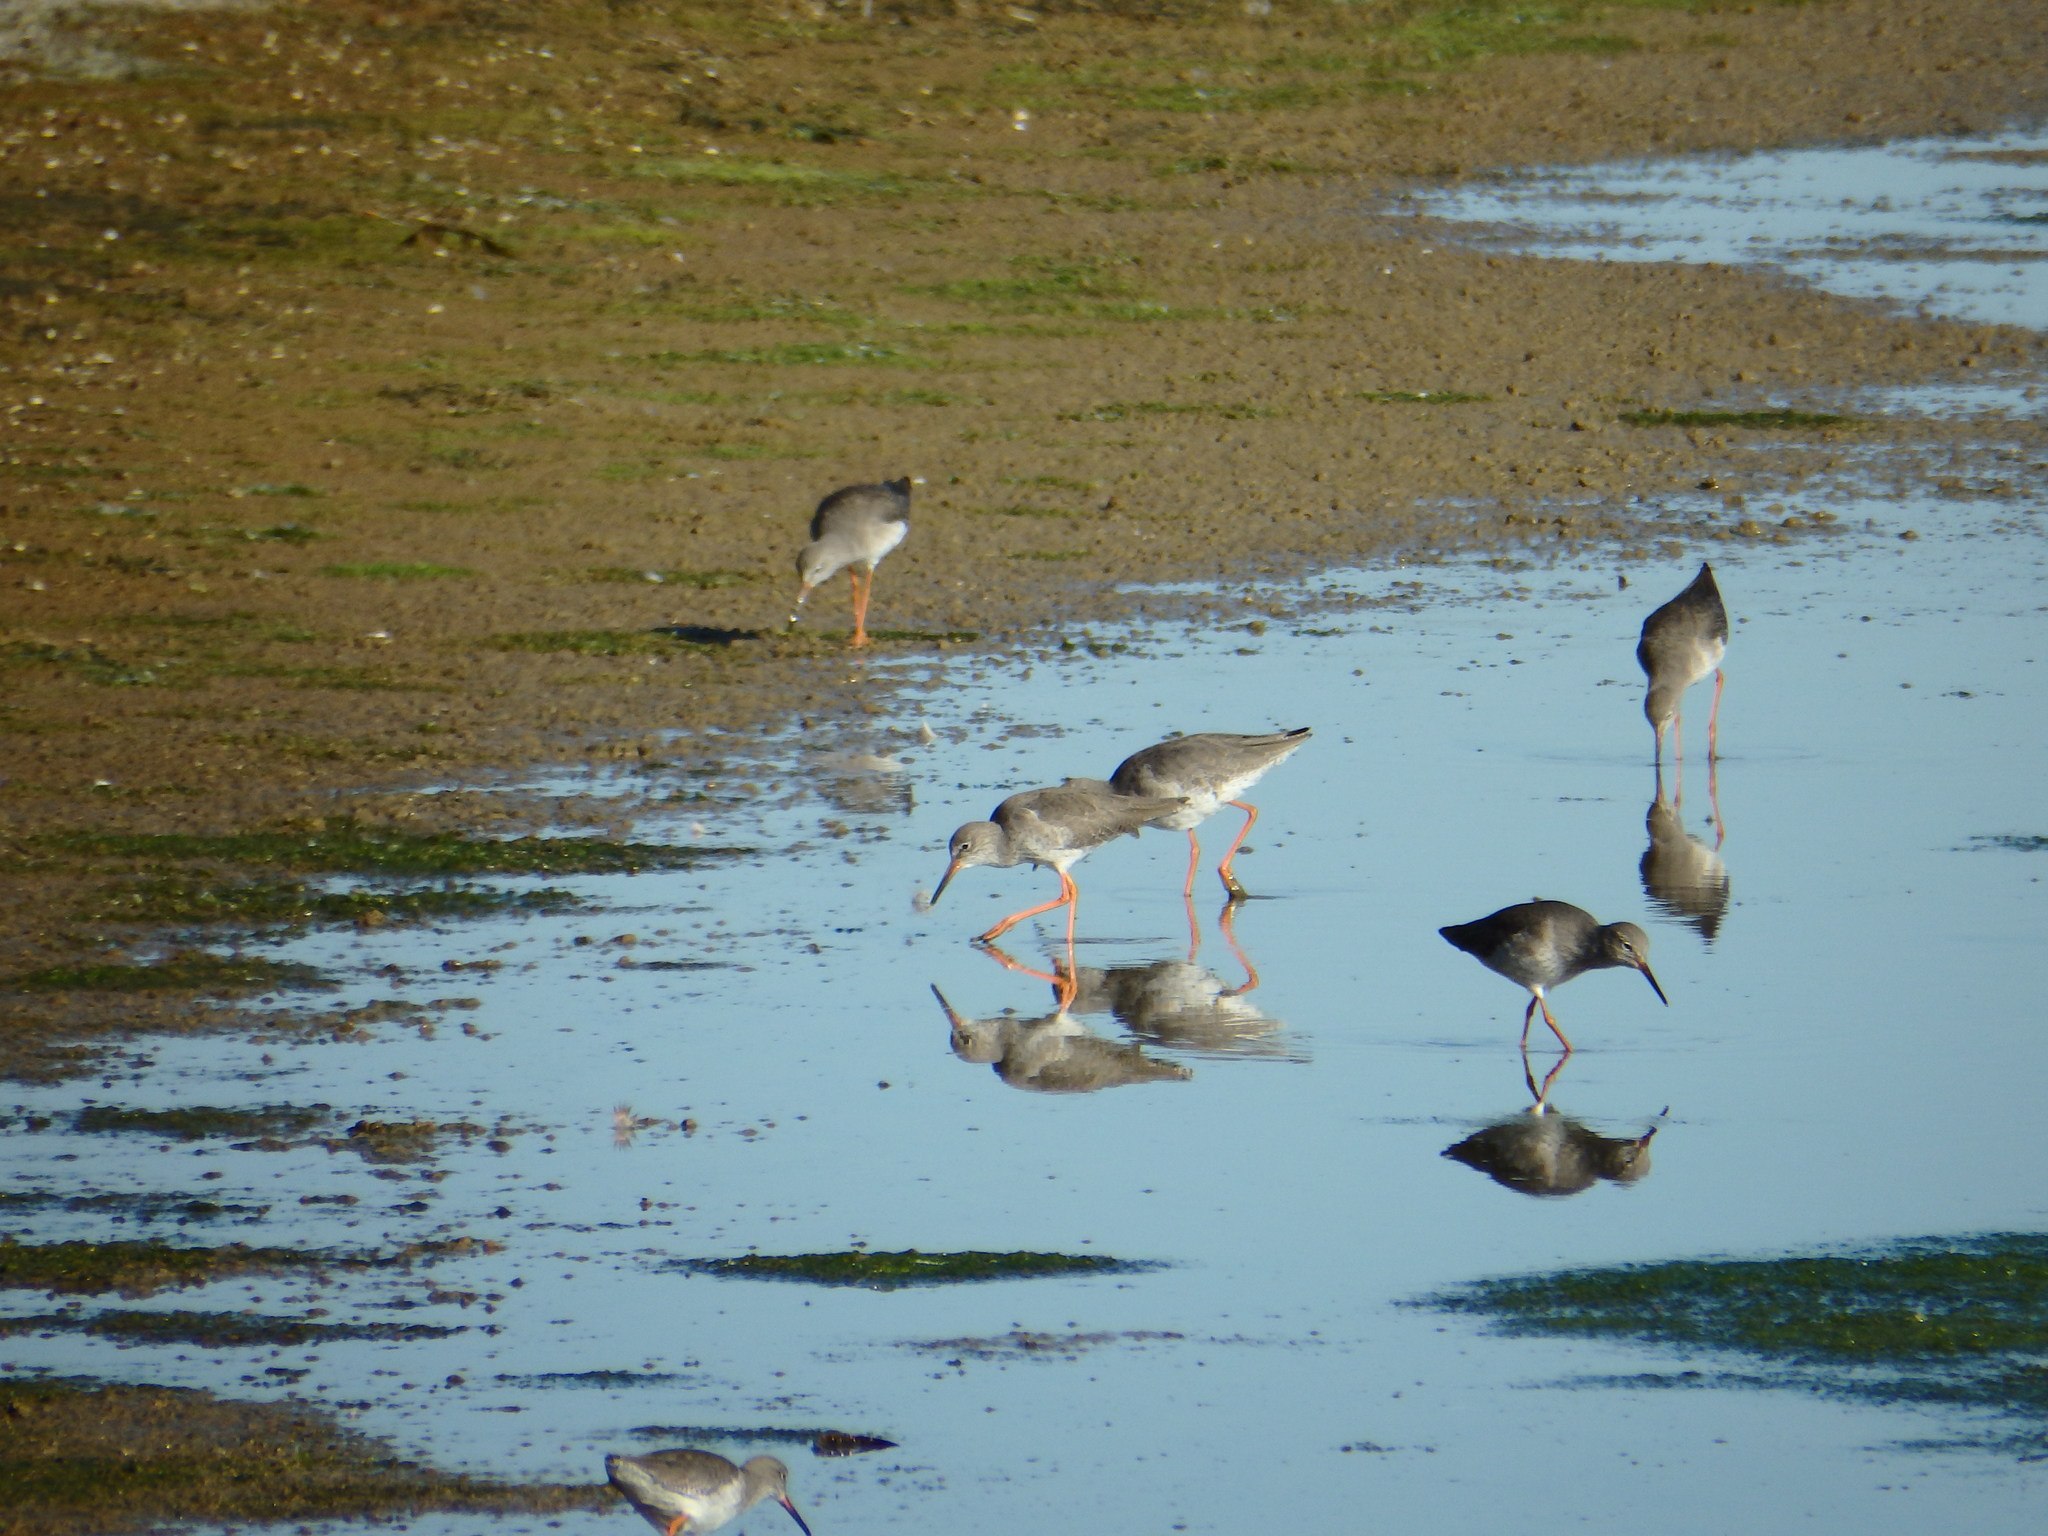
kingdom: Animalia
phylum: Chordata
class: Aves
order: Charadriiformes
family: Scolopacidae
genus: Tringa
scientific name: Tringa totanus
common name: Common redshank
